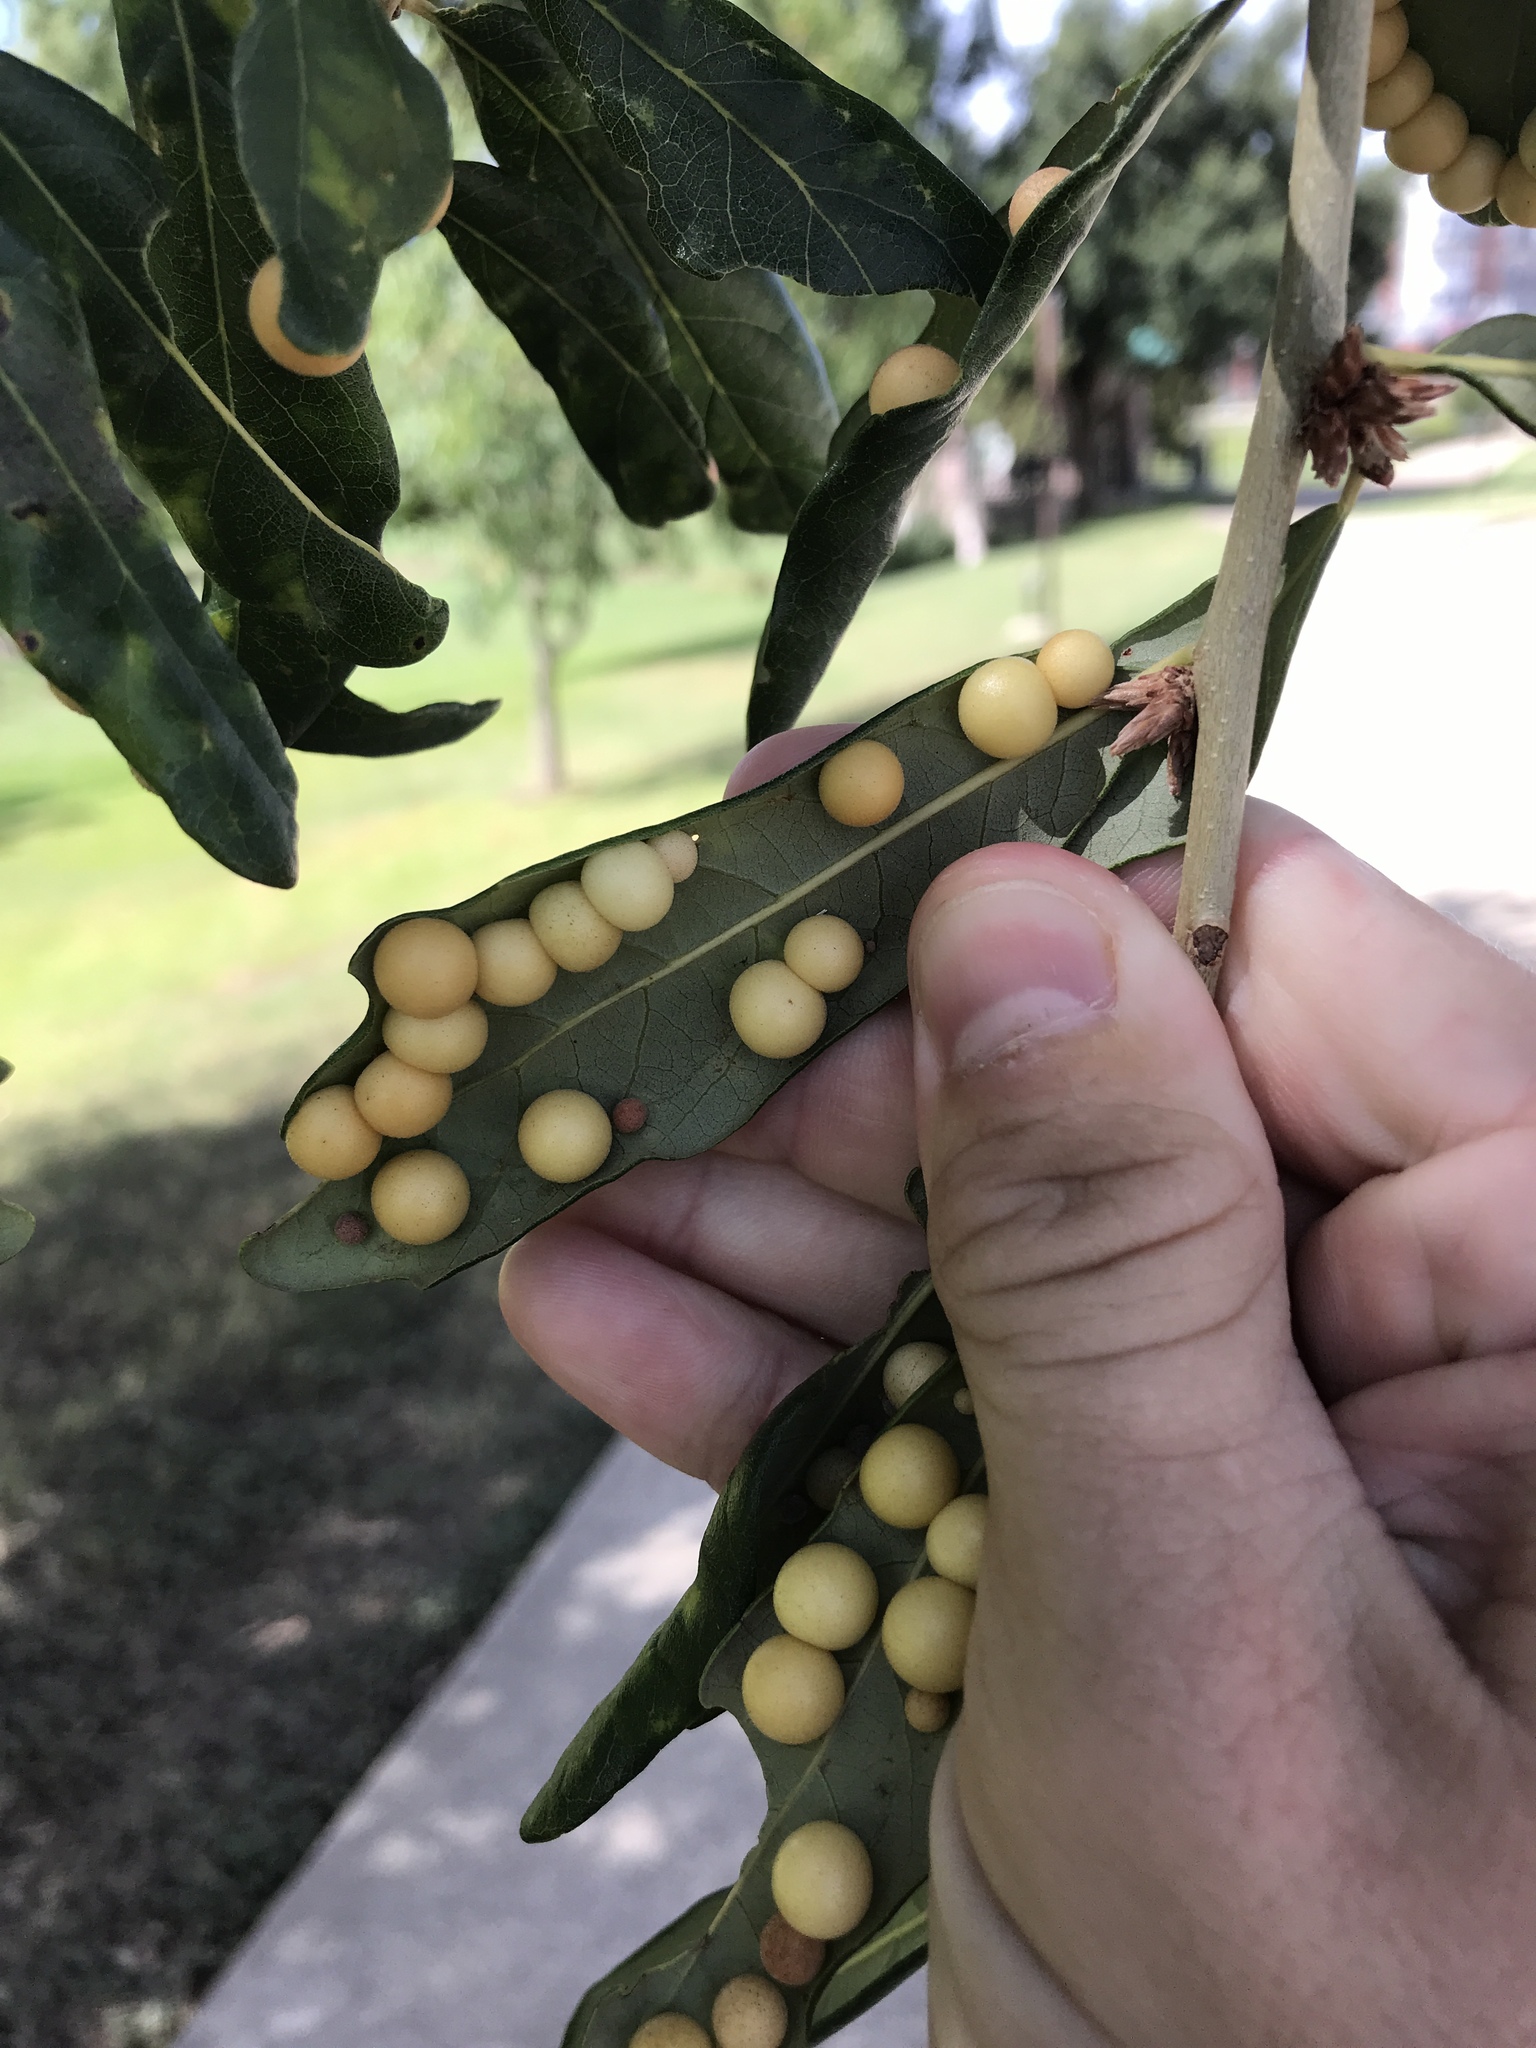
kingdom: Animalia
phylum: Arthropoda
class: Insecta
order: Hymenoptera
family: Cynipidae
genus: Belonocnema
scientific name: Belonocnema kinseyi
